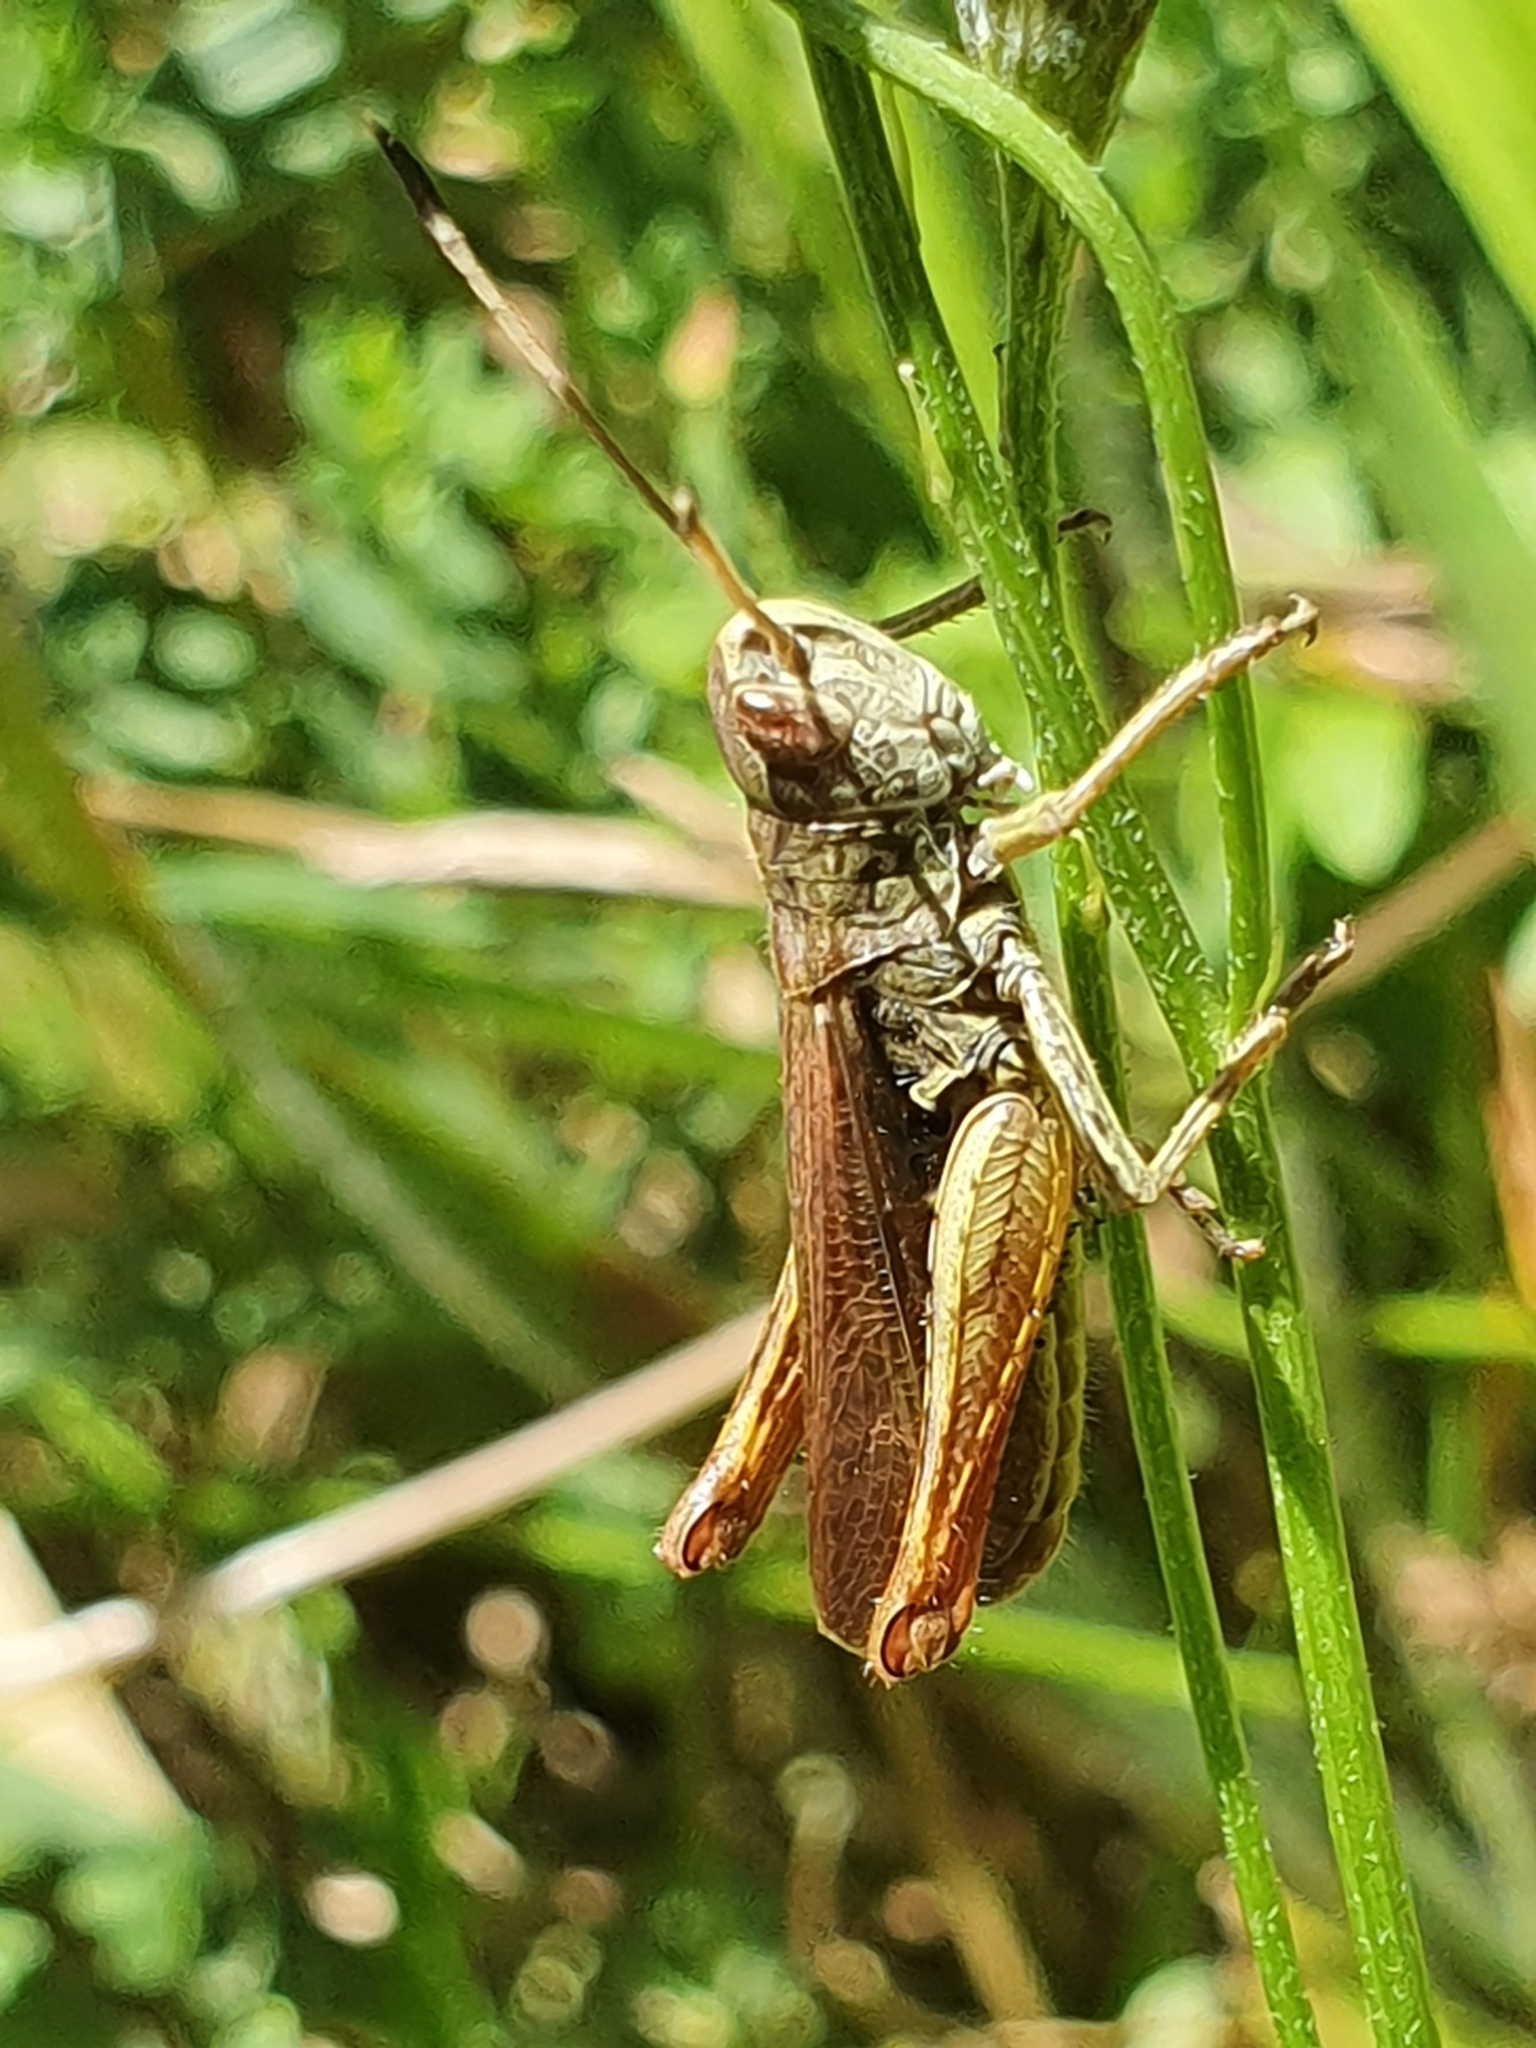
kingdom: Animalia
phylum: Arthropoda
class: Insecta
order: Orthoptera
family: Acrididae
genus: Gomphocerippus
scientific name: Gomphocerippus rufus
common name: Rufous grasshopper
